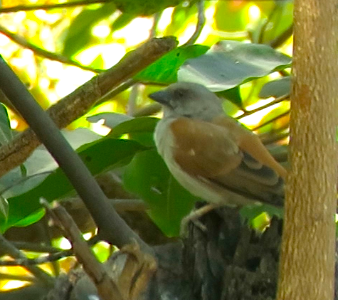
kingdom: Animalia
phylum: Chordata
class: Aves
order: Passeriformes
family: Passeridae
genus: Passer
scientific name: Passer griseus
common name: Northern grey-headed sparrow
